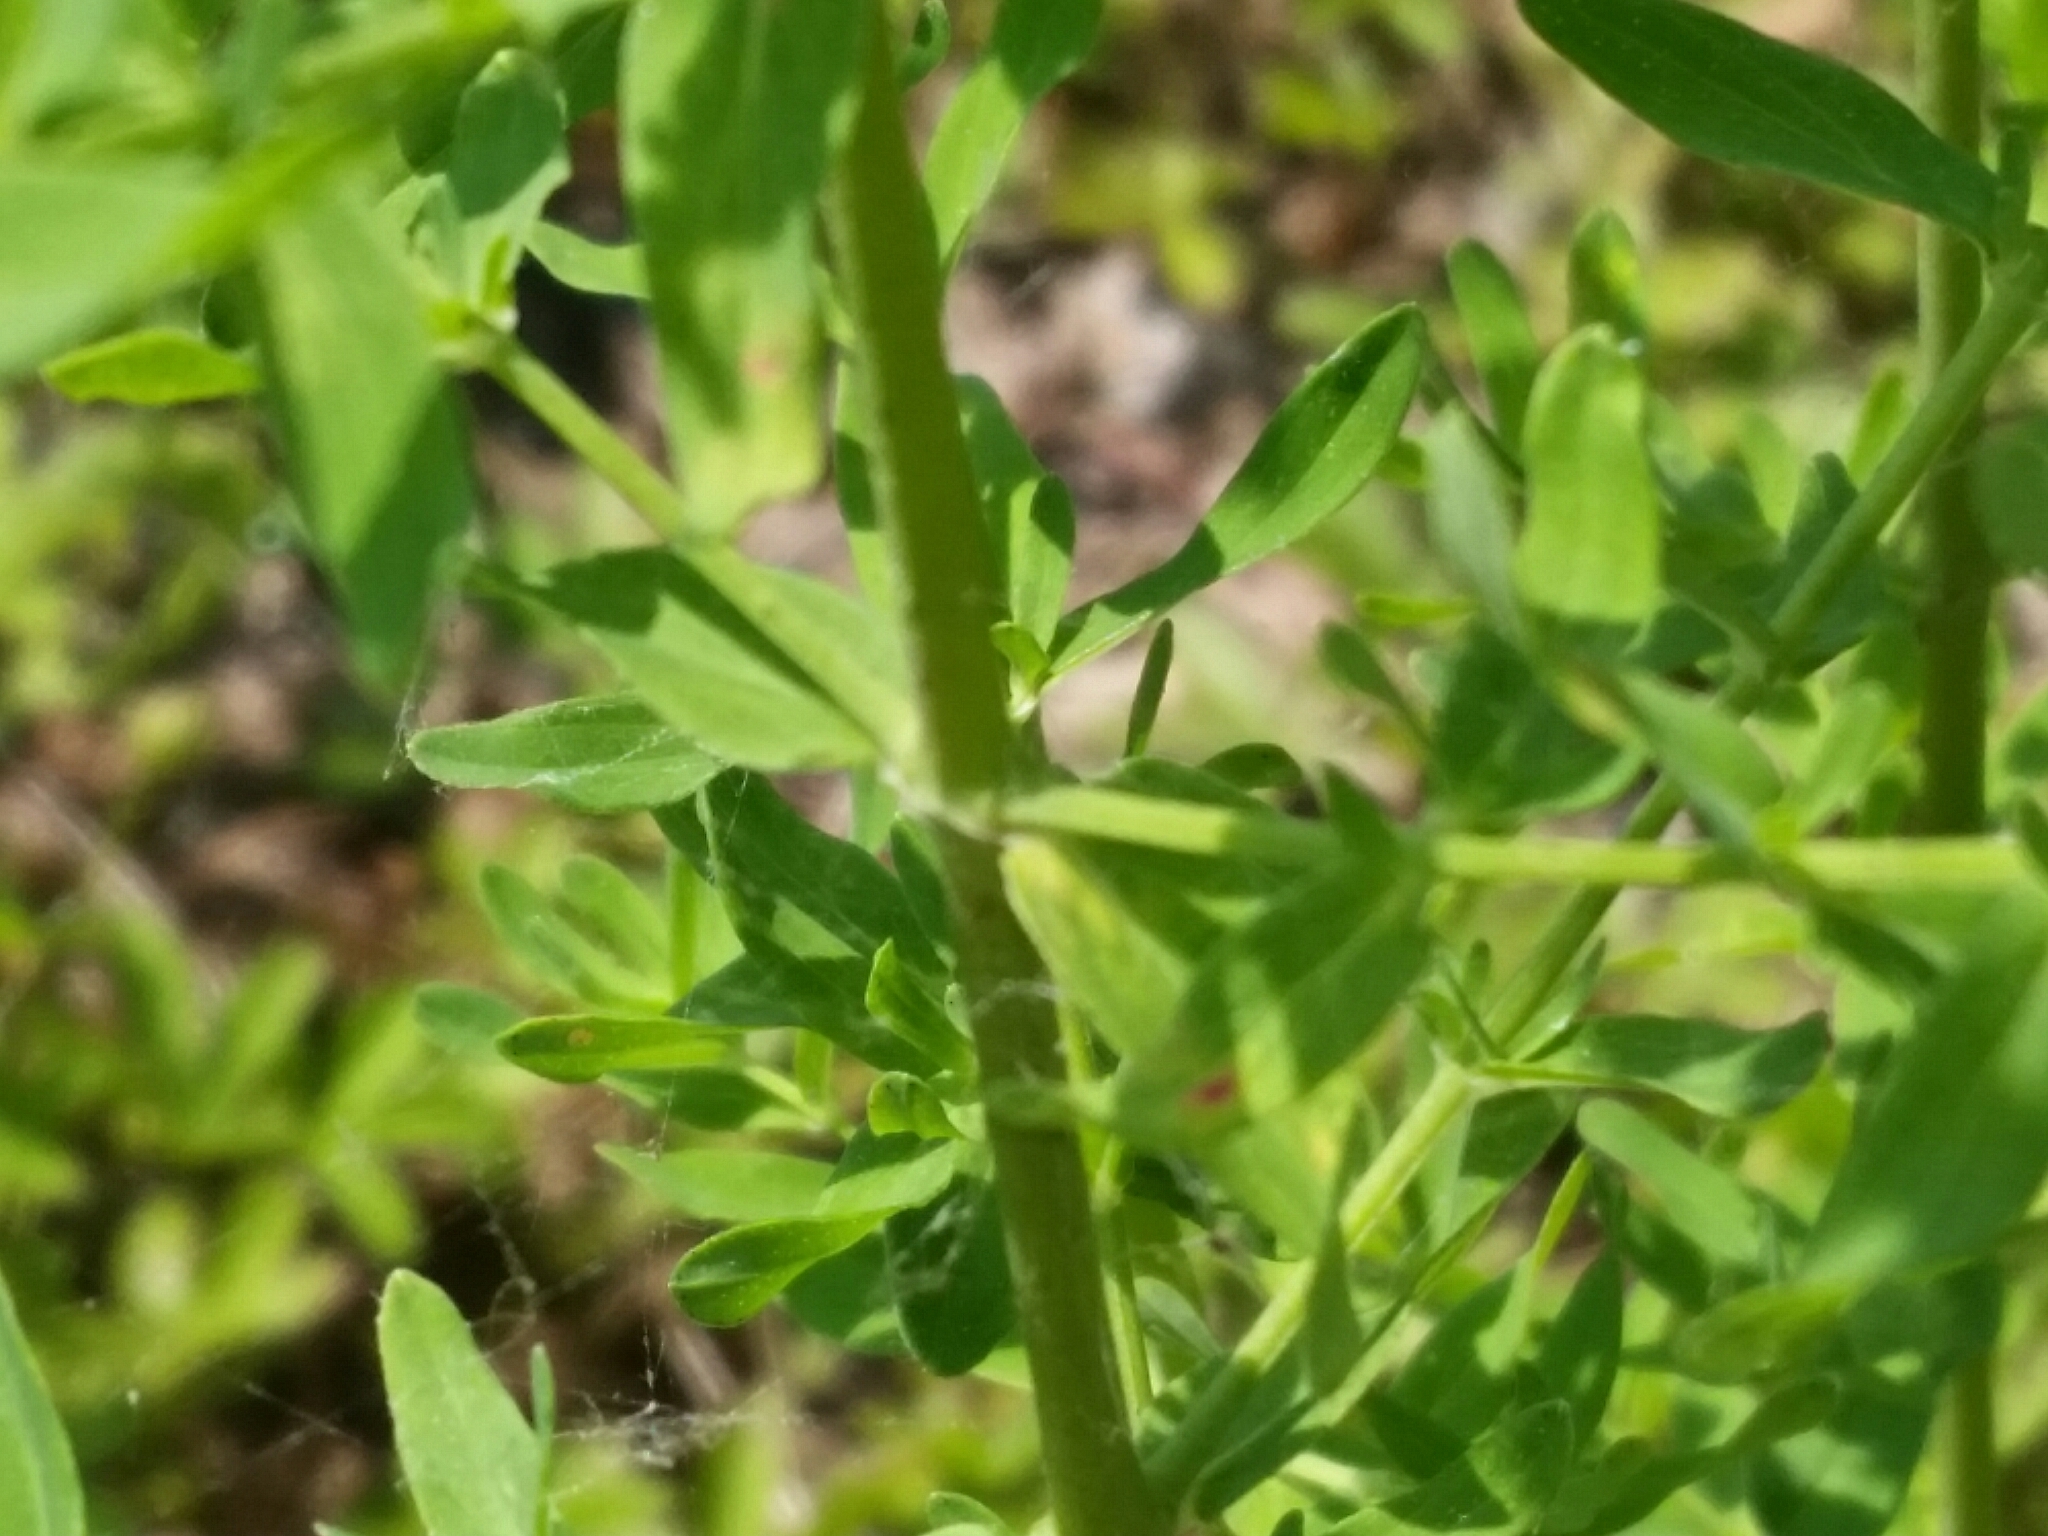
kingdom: Plantae
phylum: Tracheophyta
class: Magnoliopsida
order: Malpighiales
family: Hypericaceae
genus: Hypericum
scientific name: Hypericum perforatum
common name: Common st. johnswort
